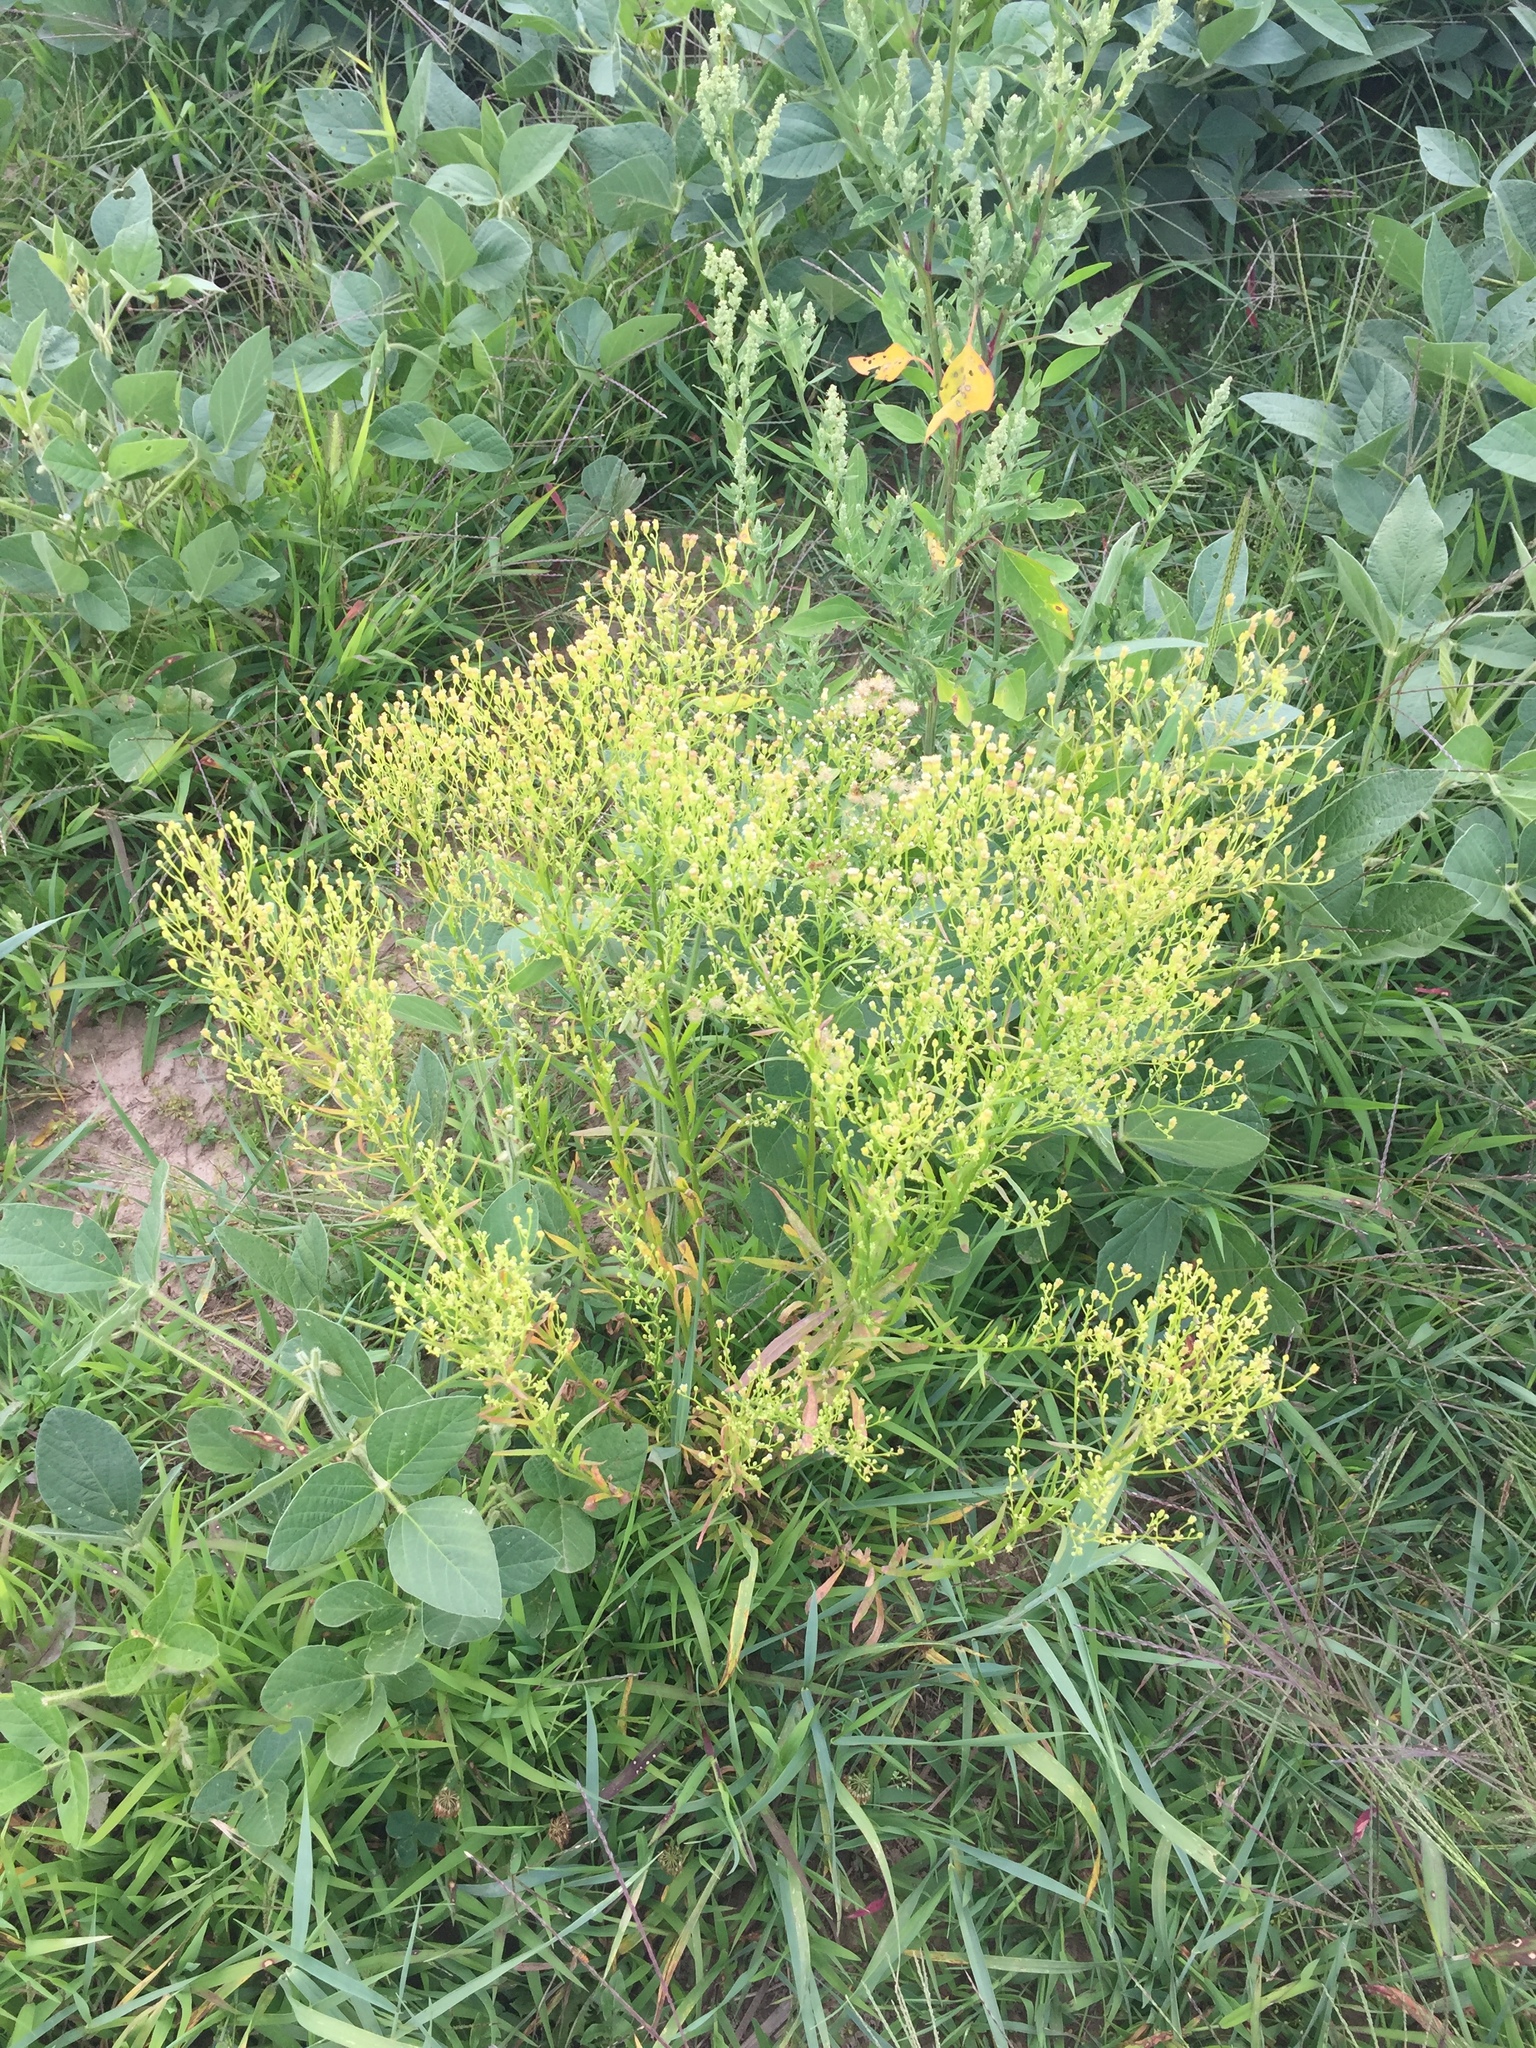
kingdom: Plantae
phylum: Tracheophyta
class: Magnoliopsida
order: Asterales
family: Asteraceae
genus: Erigeron
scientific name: Erigeron canadensis
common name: Canadian fleabane
